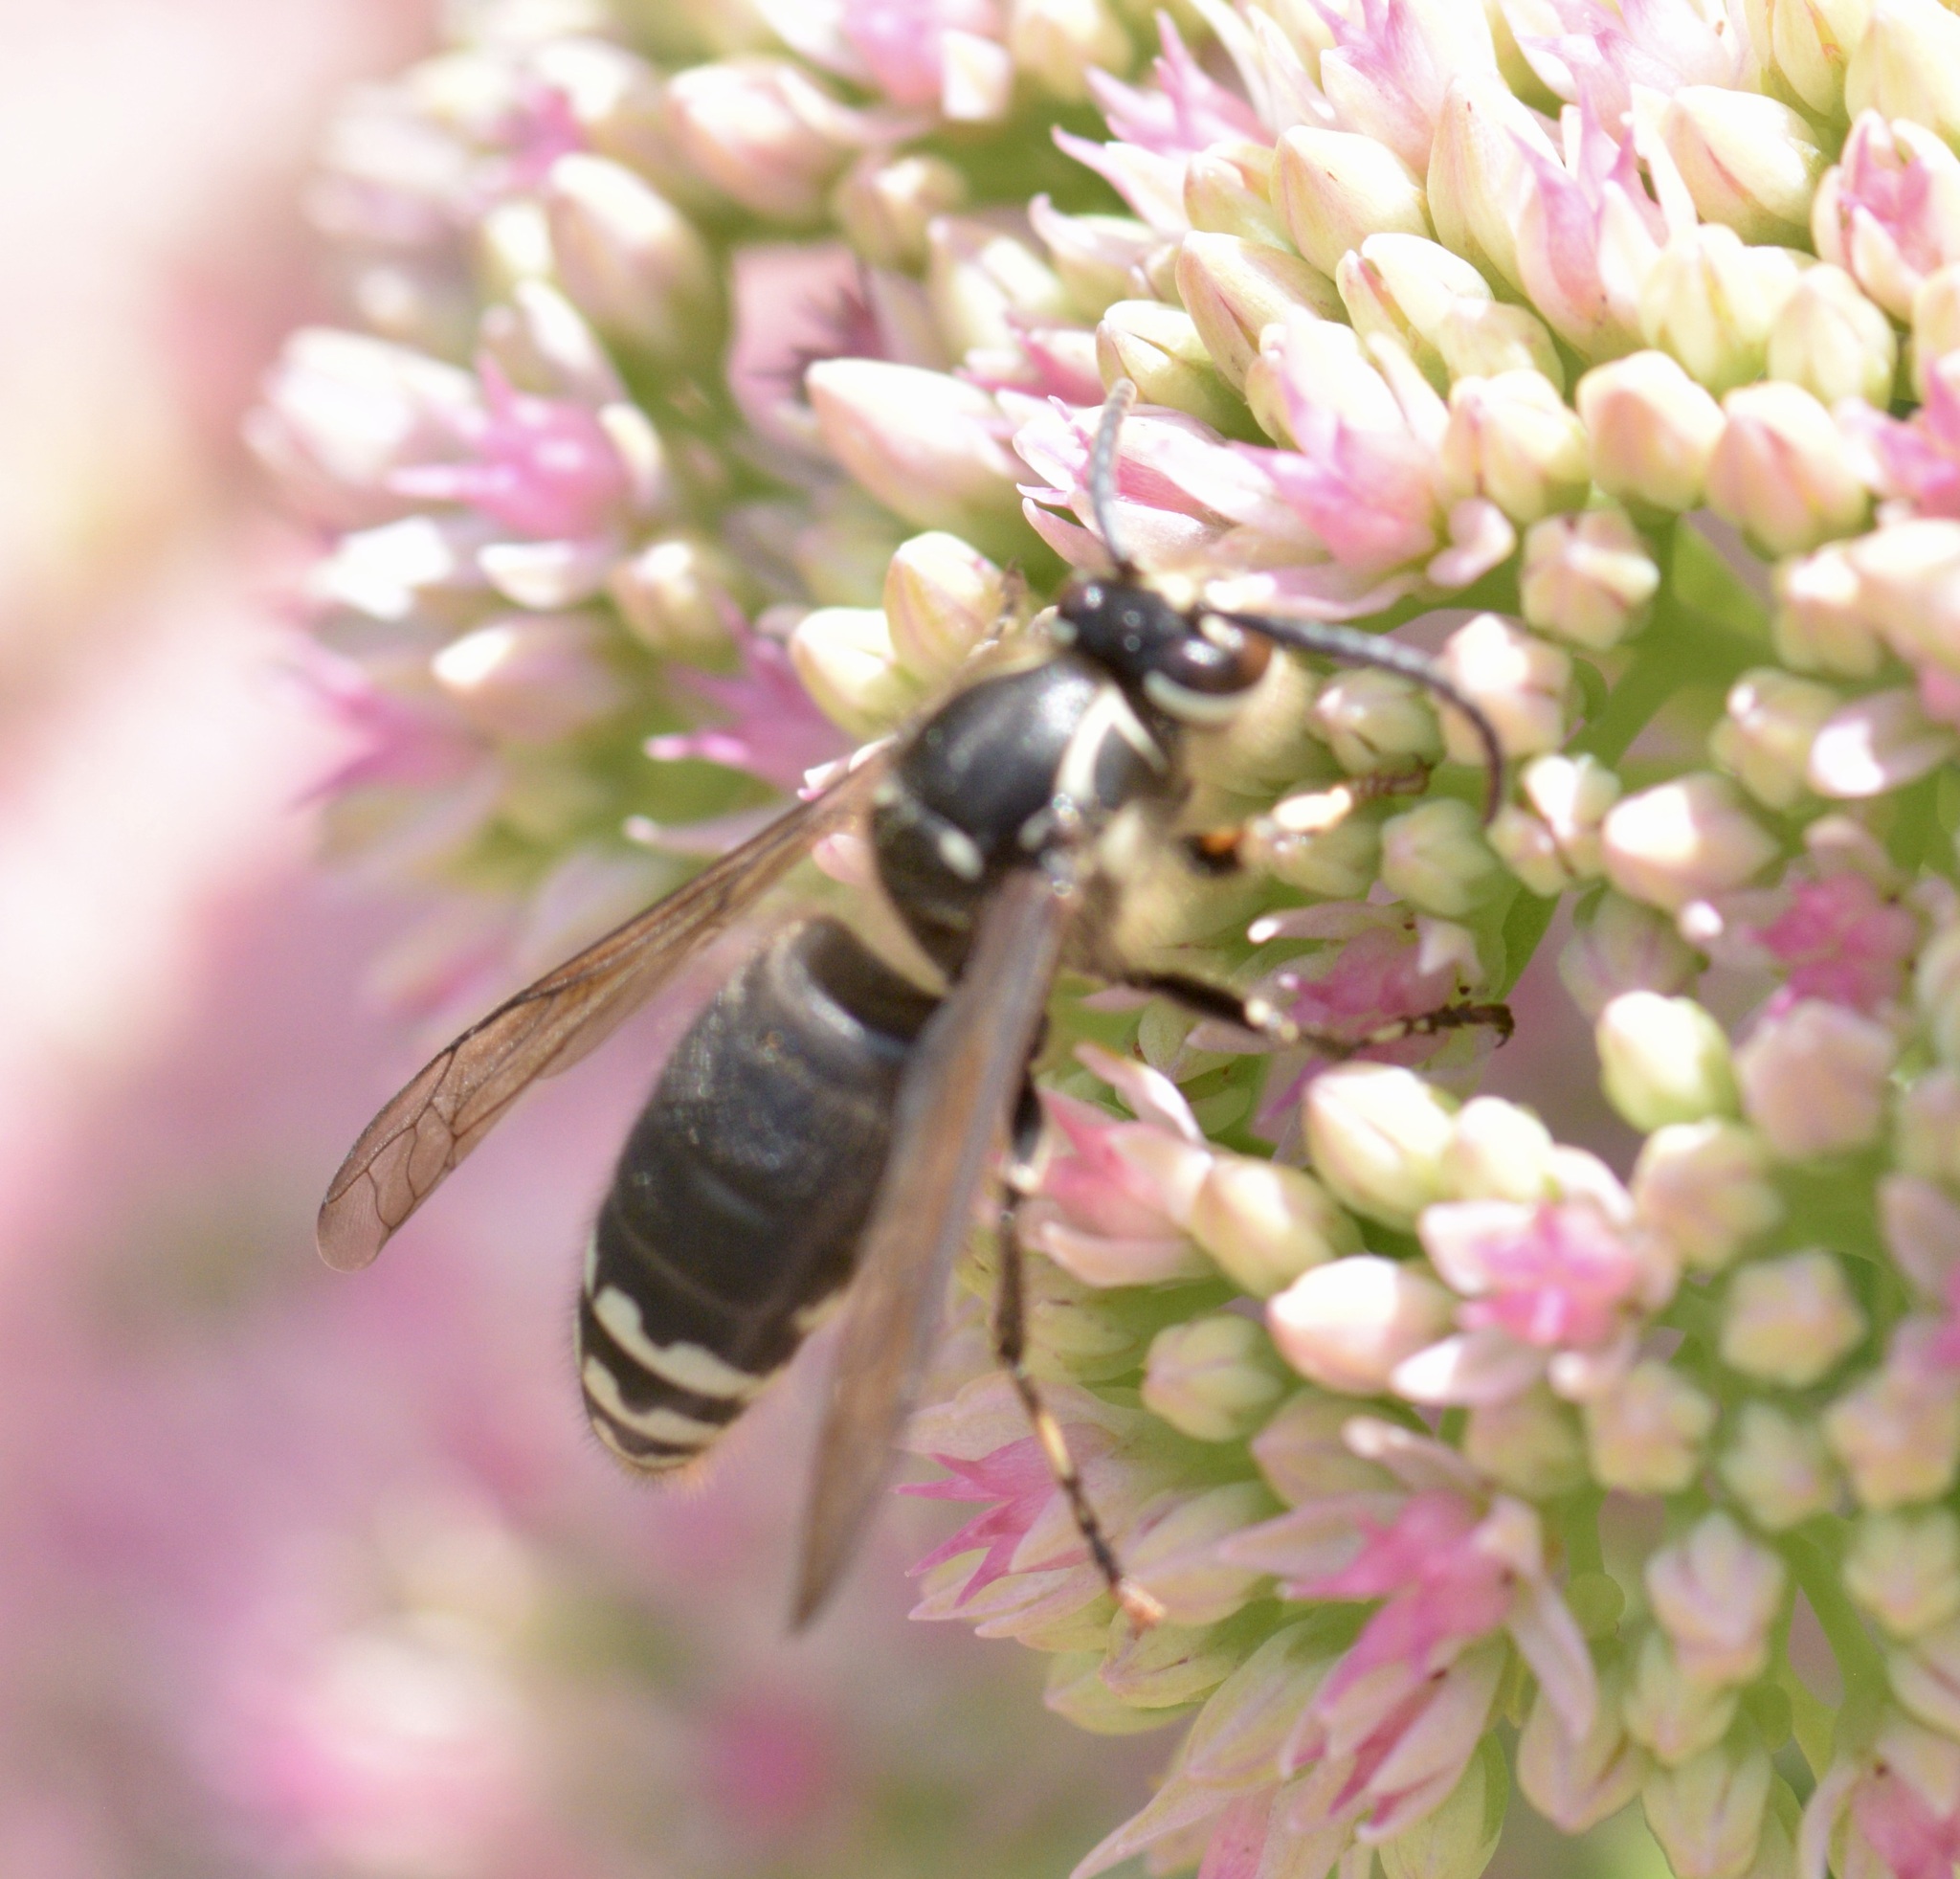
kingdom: Animalia
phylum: Arthropoda
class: Insecta
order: Hymenoptera
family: Vespidae
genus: Dolichovespula
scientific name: Dolichovespula maculata
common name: Bald-faced hornet
